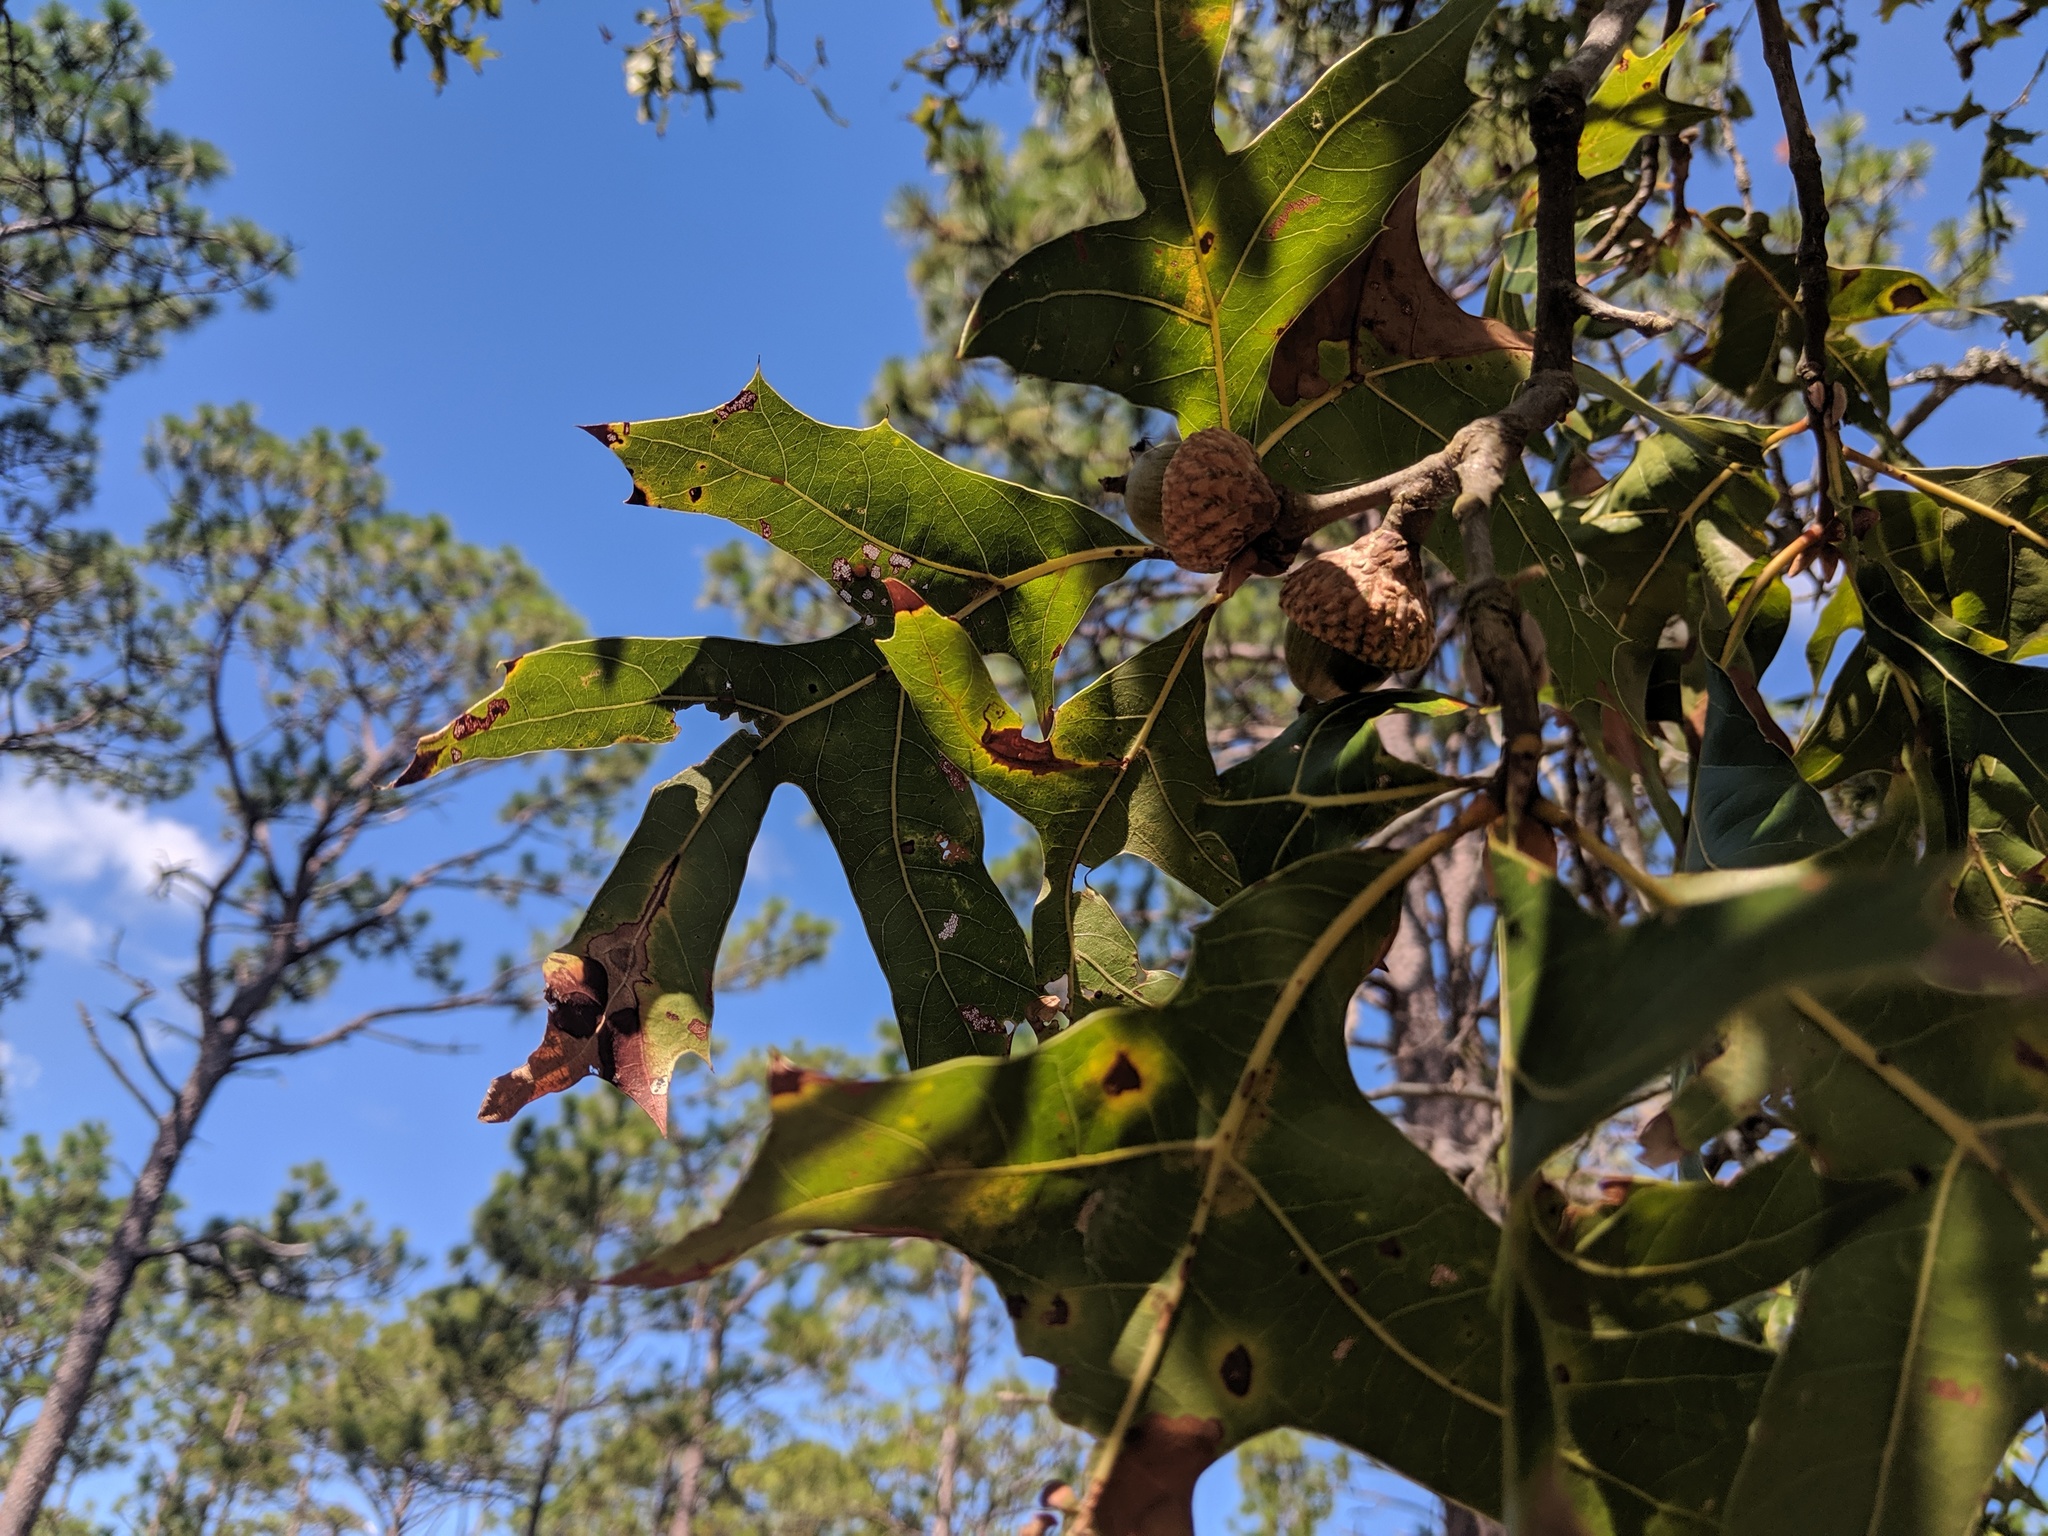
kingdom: Plantae
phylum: Tracheophyta
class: Magnoliopsida
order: Fagales
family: Fagaceae
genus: Quercus
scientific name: Quercus laevis
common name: Turkey oak
